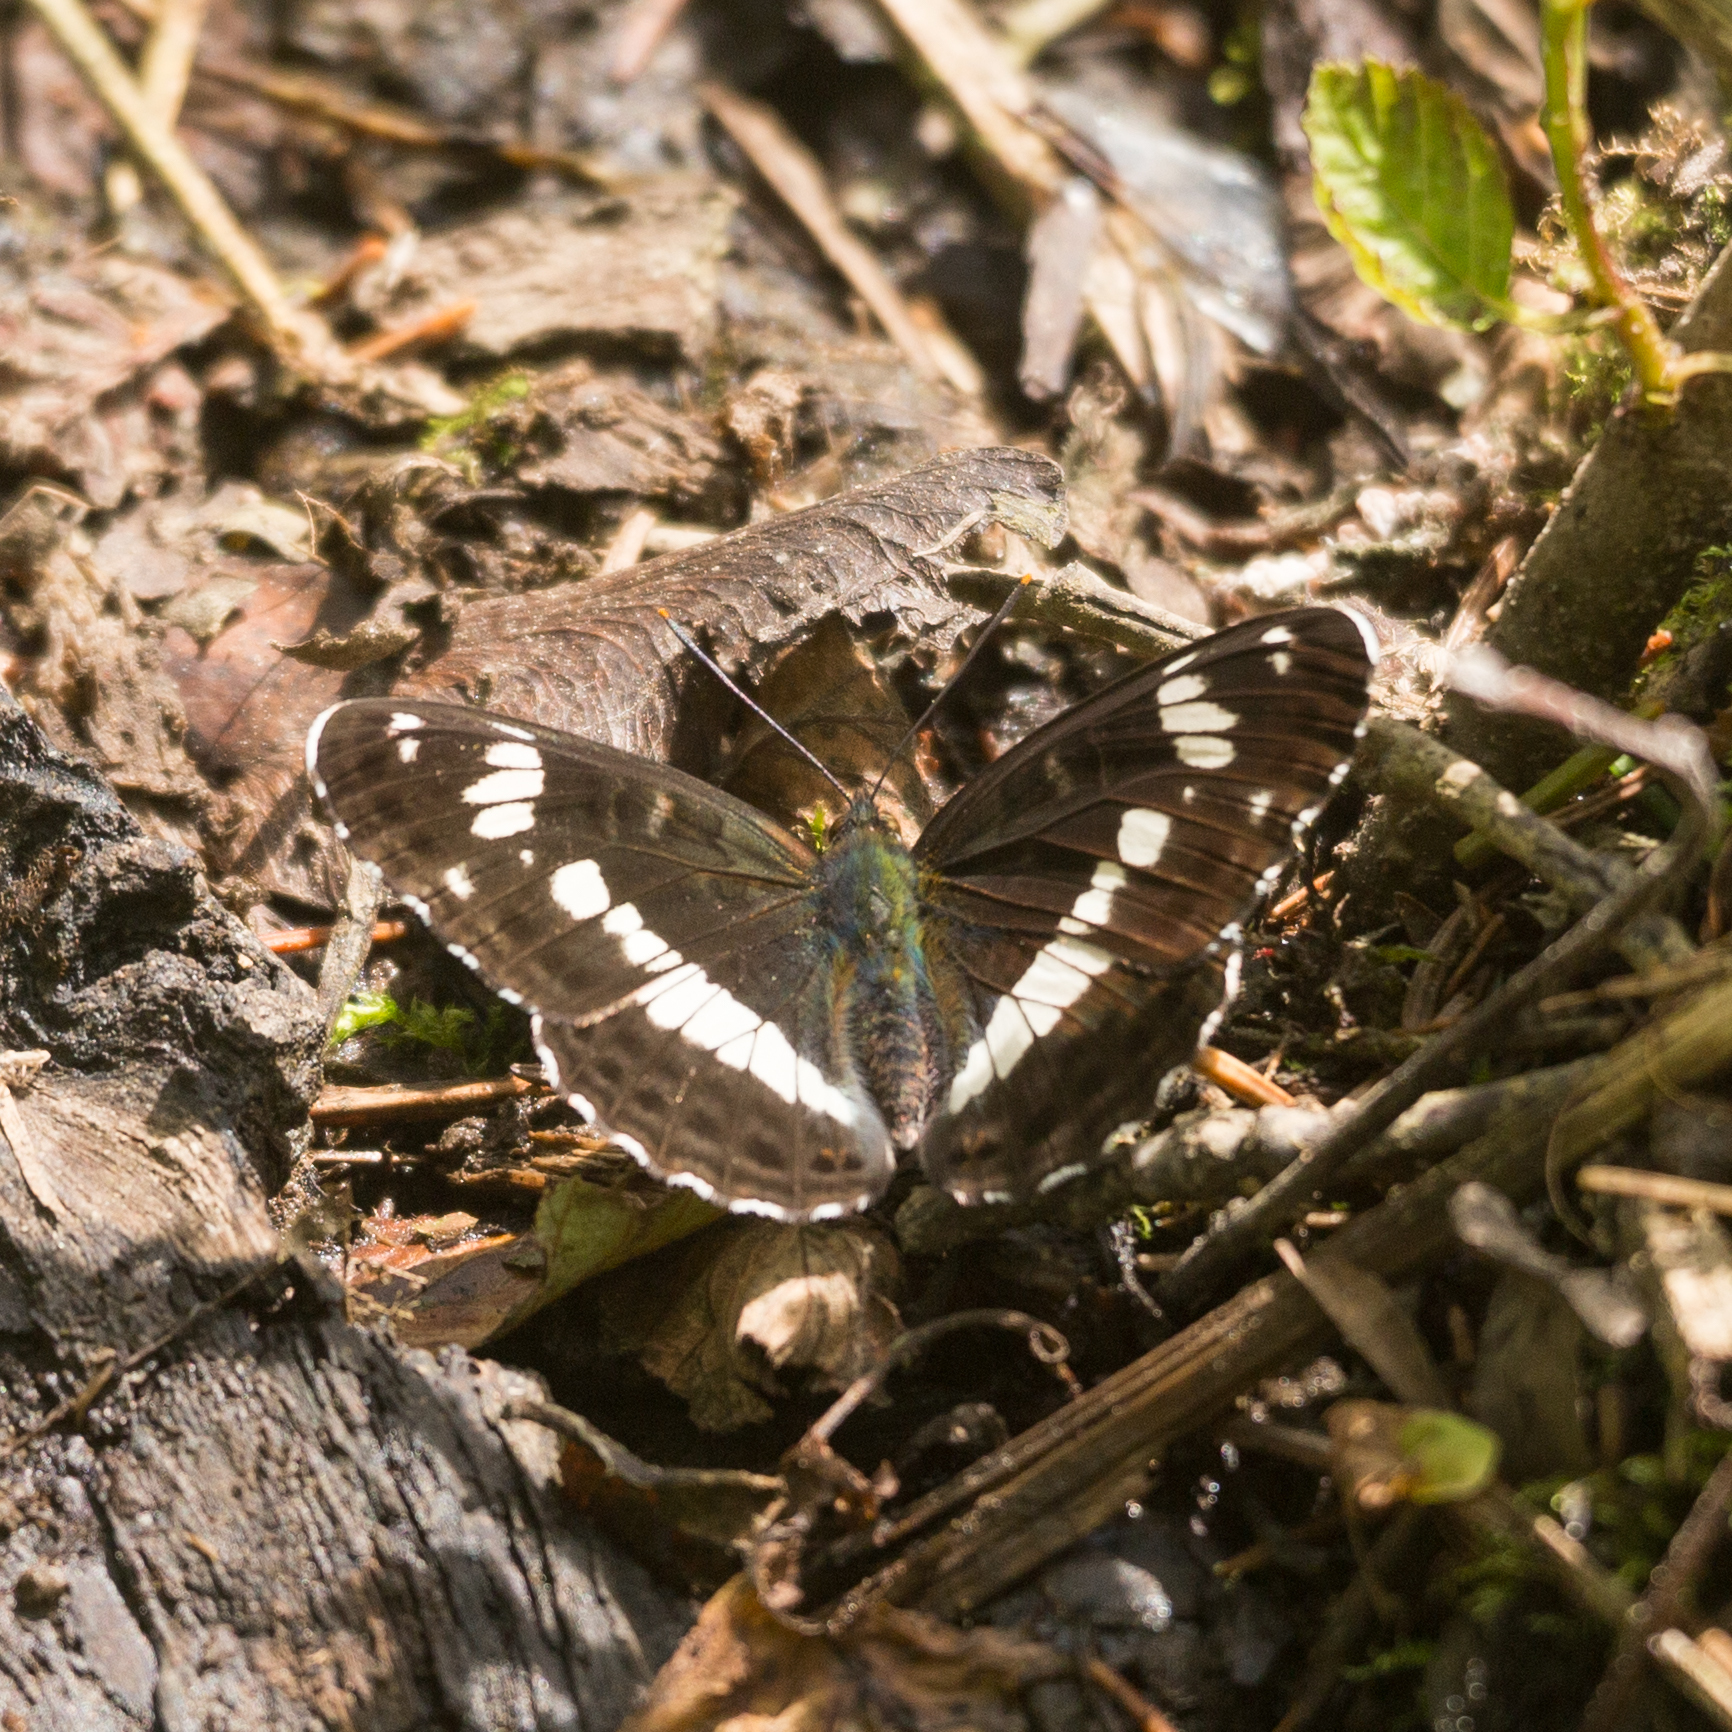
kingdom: Animalia
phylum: Arthropoda
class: Insecta
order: Lepidoptera
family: Nymphalidae
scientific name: Nymphalidae
